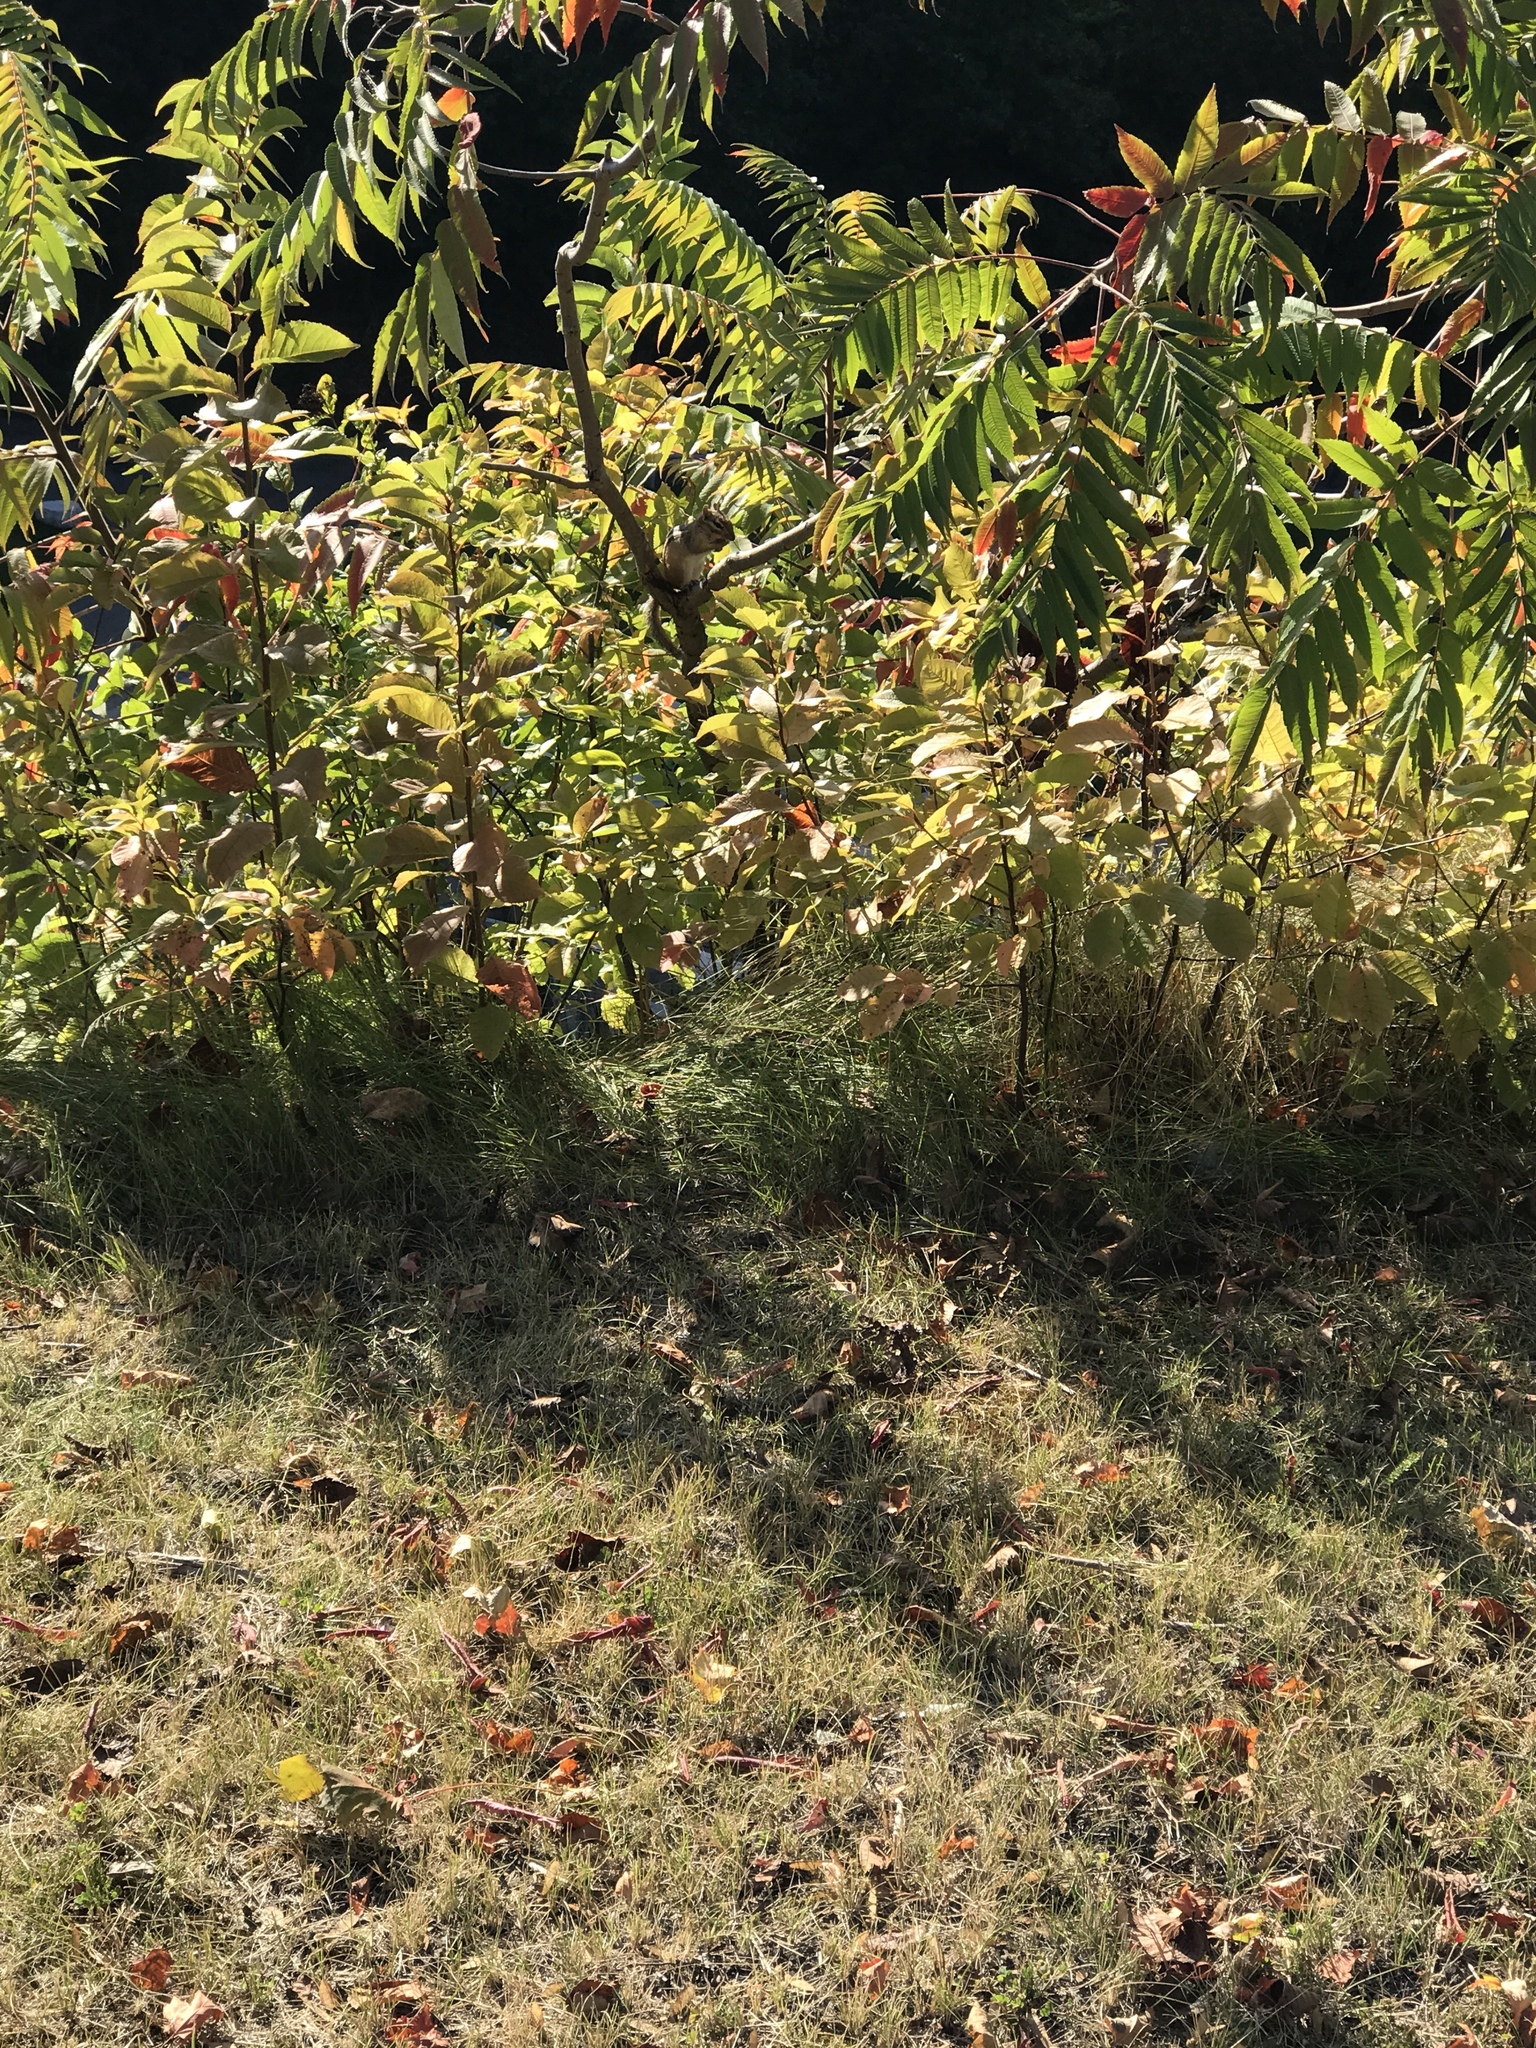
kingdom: Animalia
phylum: Chordata
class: Mammalia
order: Rodentia
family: Sciuridae
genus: Tamias
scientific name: Tamias striatus
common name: Eastern chipmunk
